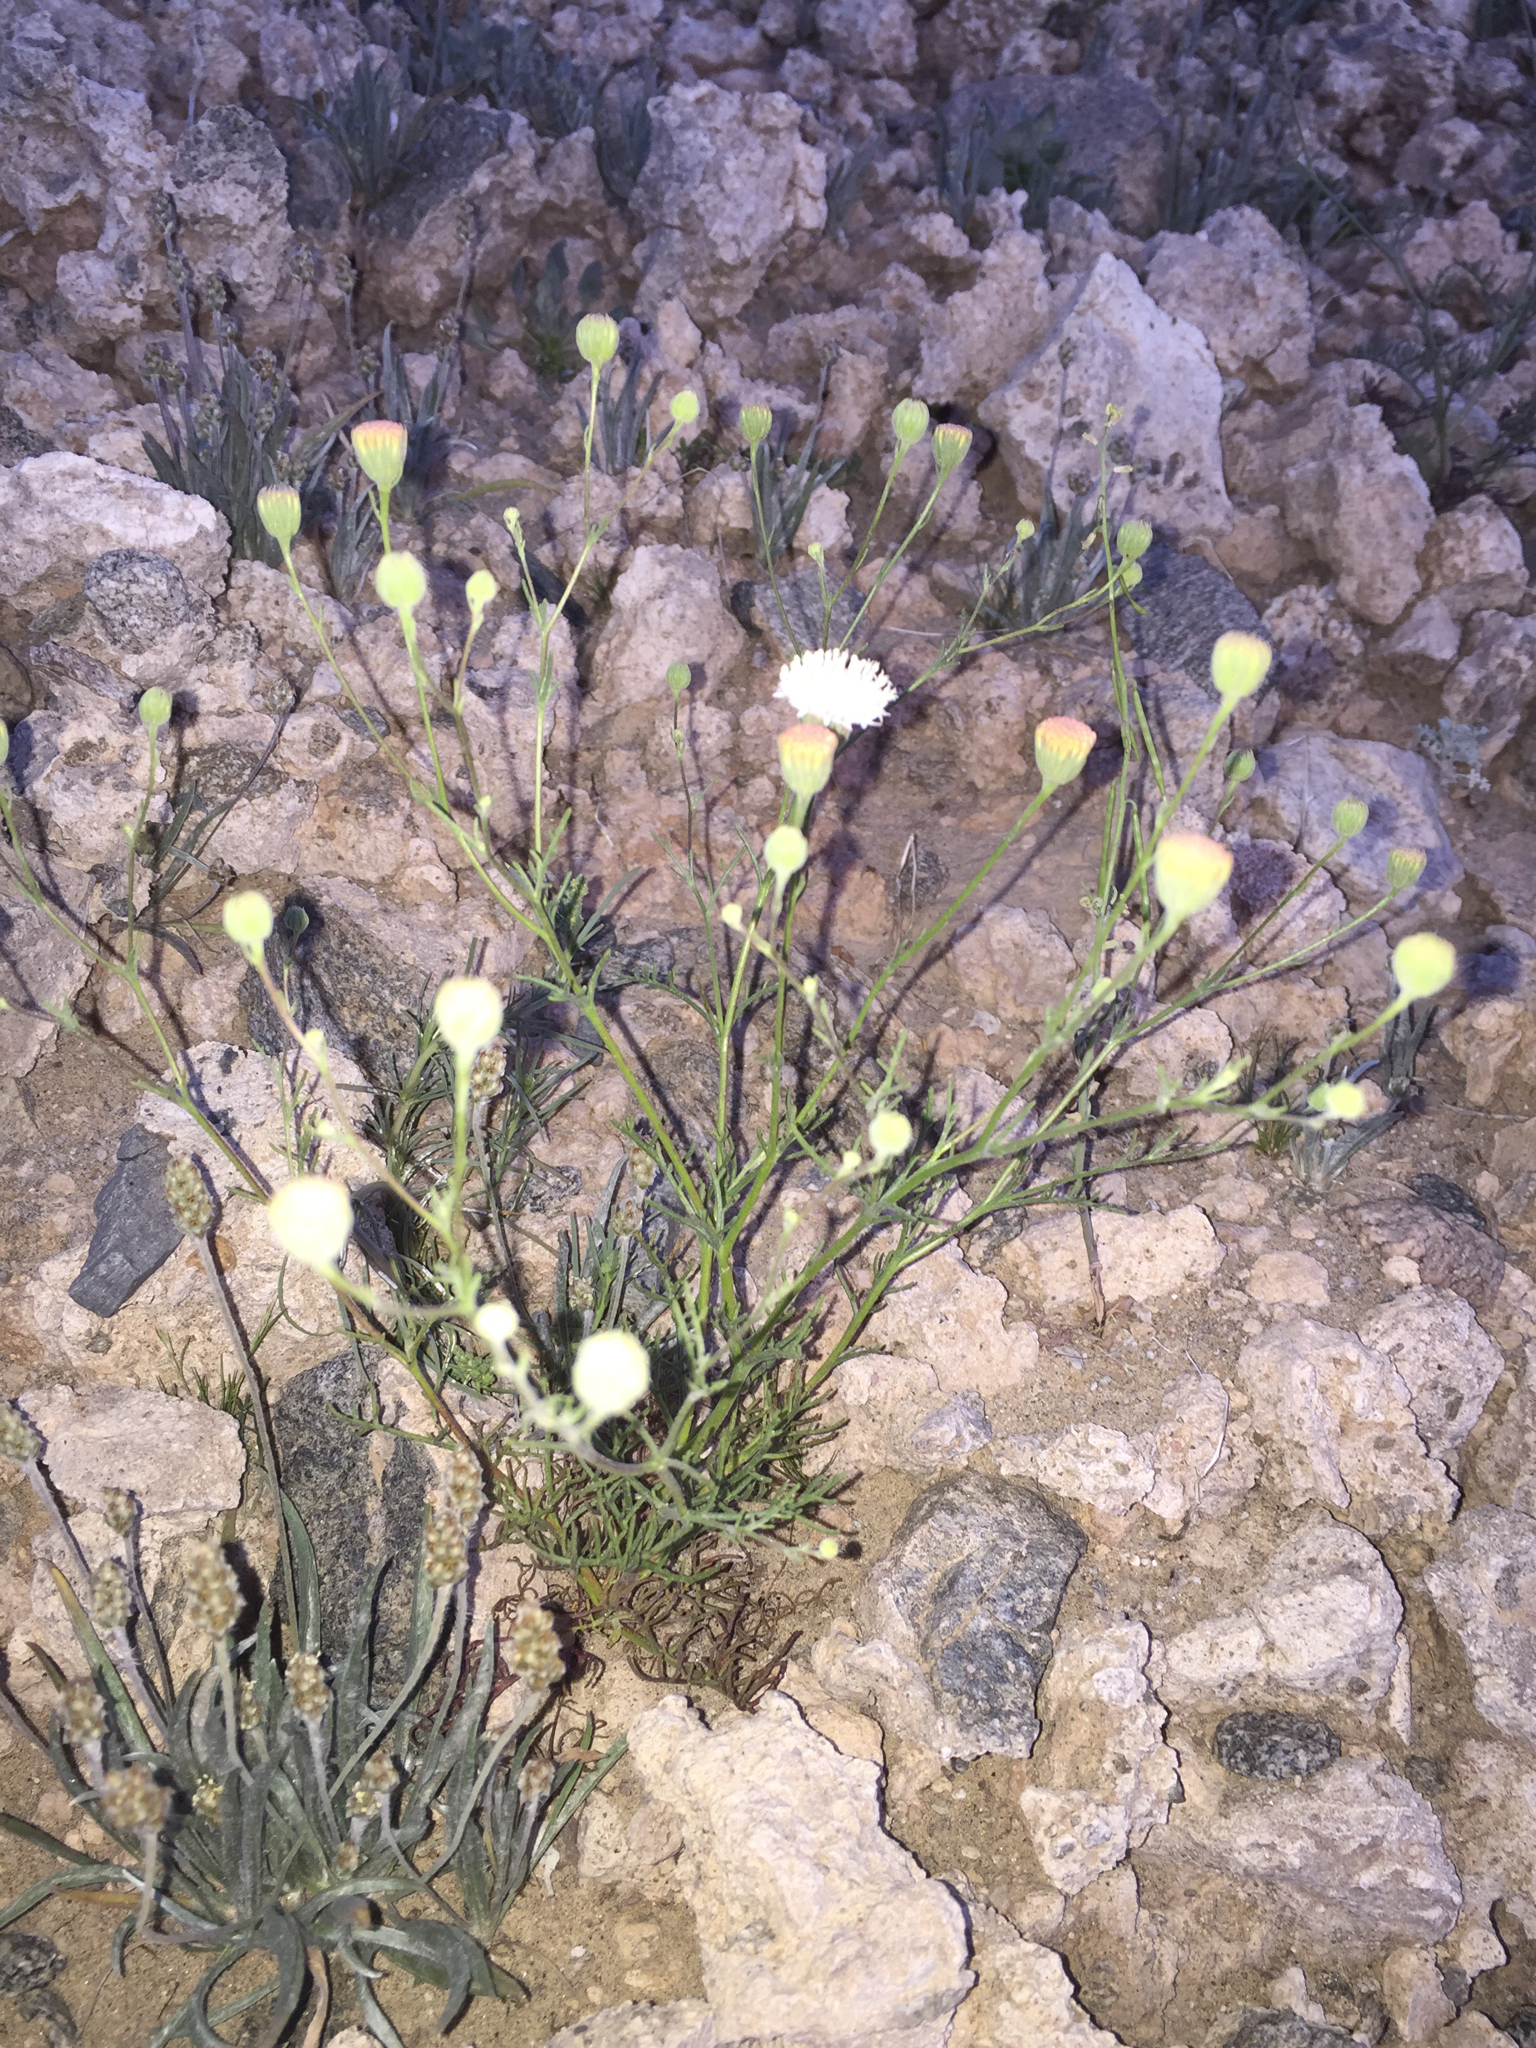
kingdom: Plantae
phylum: Tracheophyta
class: Magnoliopsida
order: Asterales
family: Asteraceae
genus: Chaenactis
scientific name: Chaenactis carphoclinia
